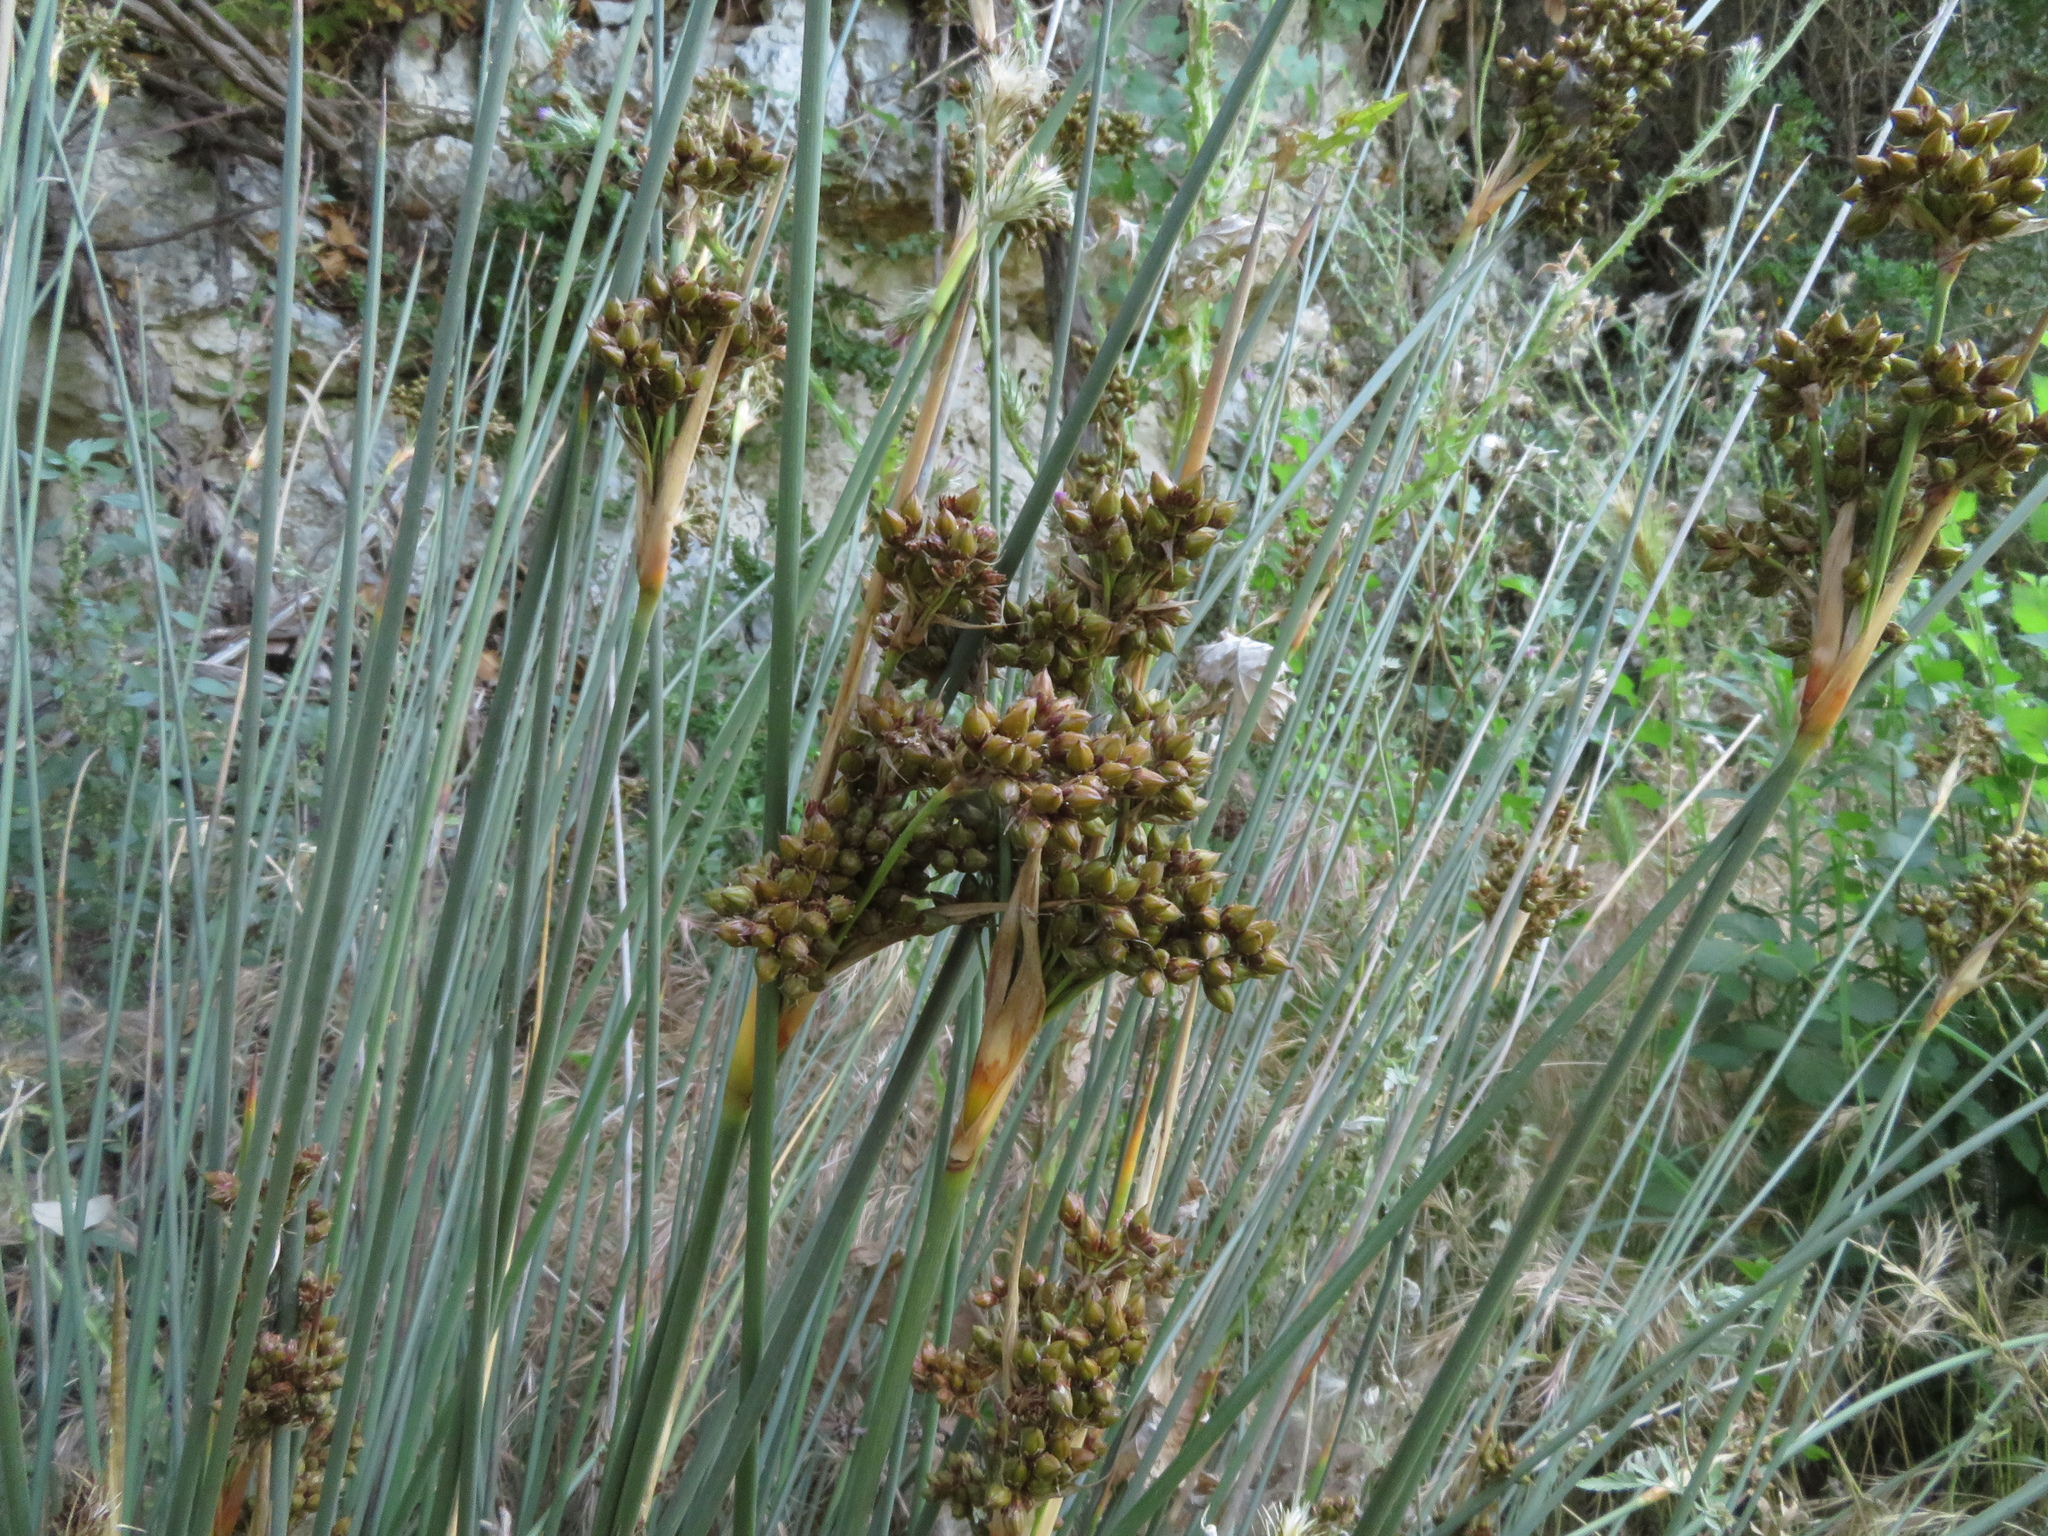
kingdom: Plantae
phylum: Tracheophyta
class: Liliopsida
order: Poales
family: Juncaceae
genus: Juncus
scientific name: Juncus acutus
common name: Sharp rush
